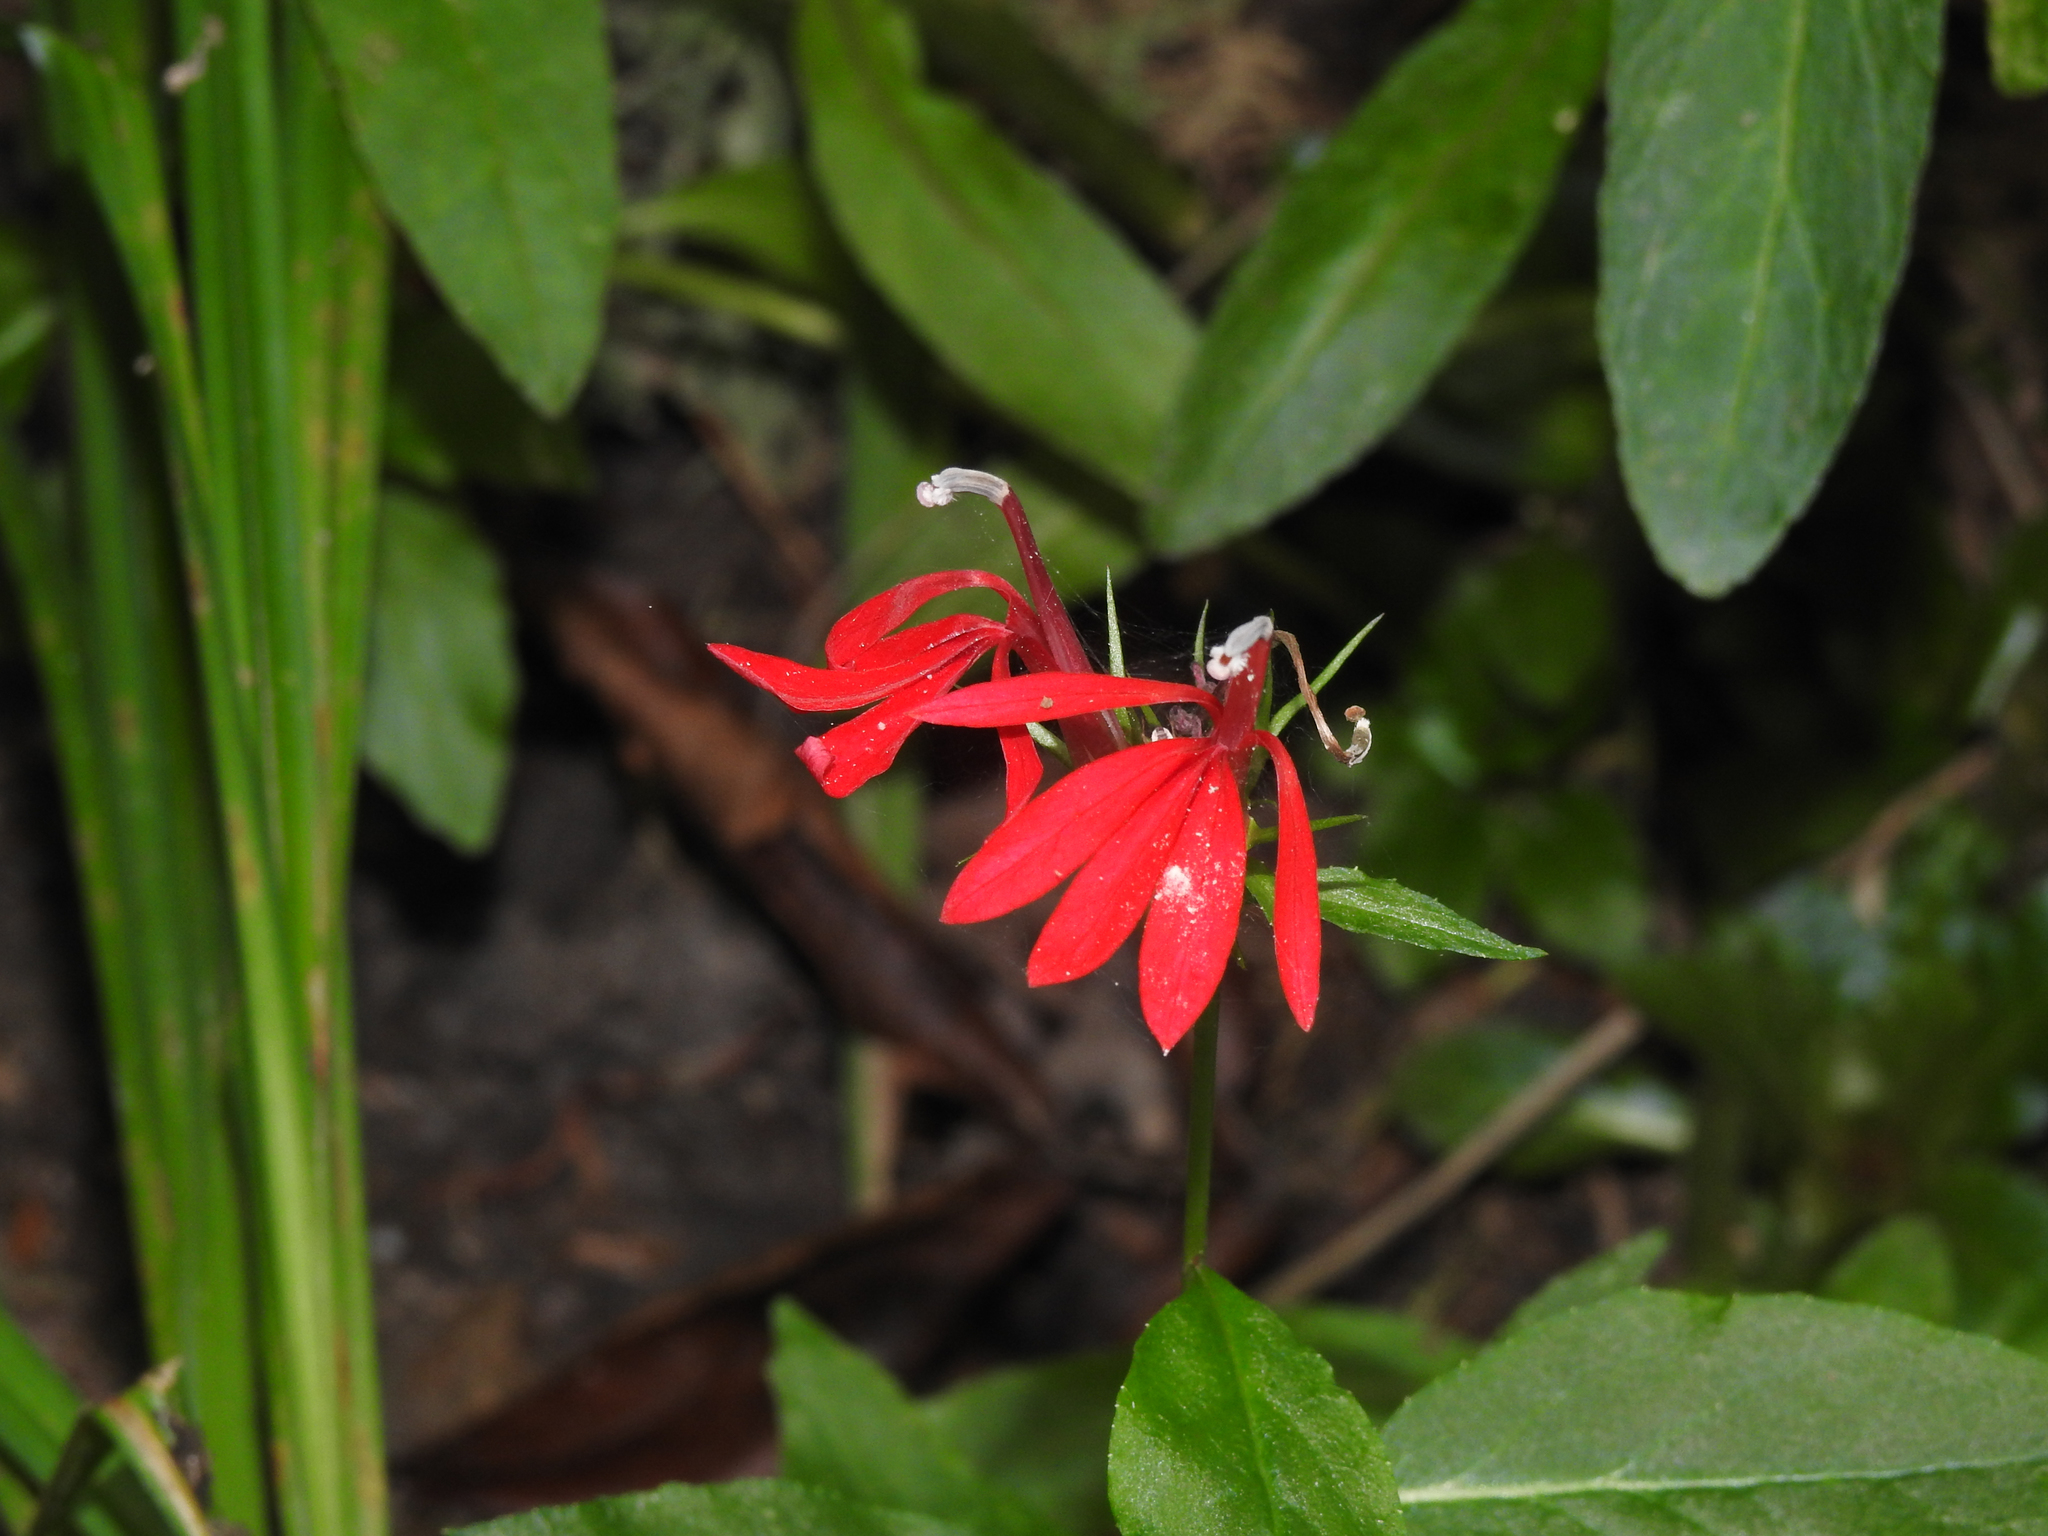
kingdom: Plantae
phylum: Tracheophyta
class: Magnoliopsida
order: Asterales
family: Campanulaceae
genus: Lobelia
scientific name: Lobelia cardinalis
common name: Cardinal flower
